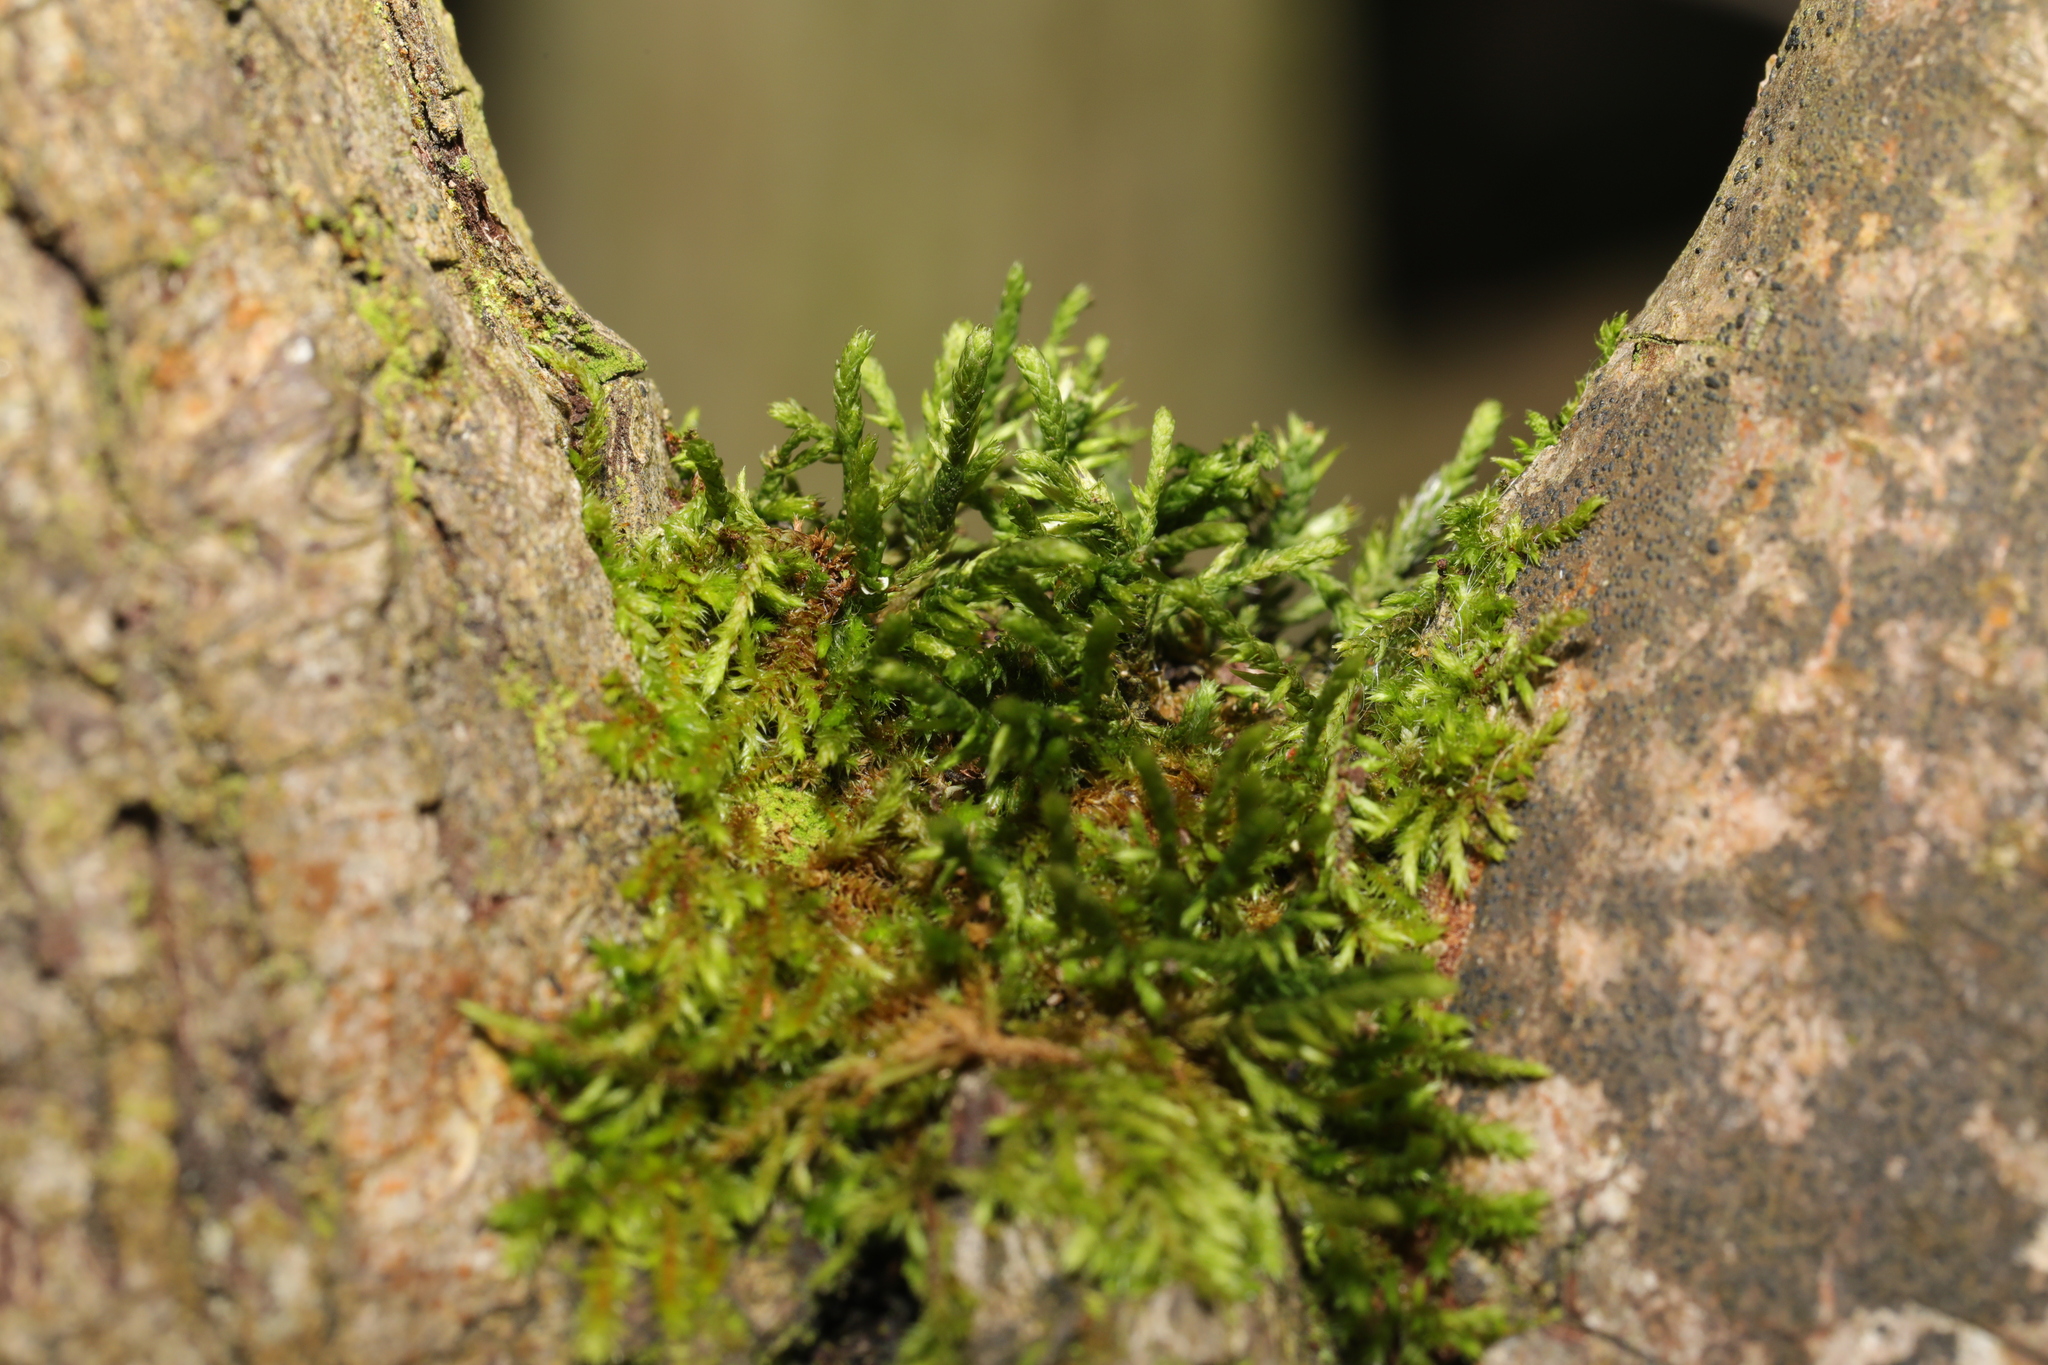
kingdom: Plantae
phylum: Bryophyta
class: Bryopsida
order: Hypnales
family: Cryphaeaceae
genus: Cryphaea
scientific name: Cryphaea heteromalla
